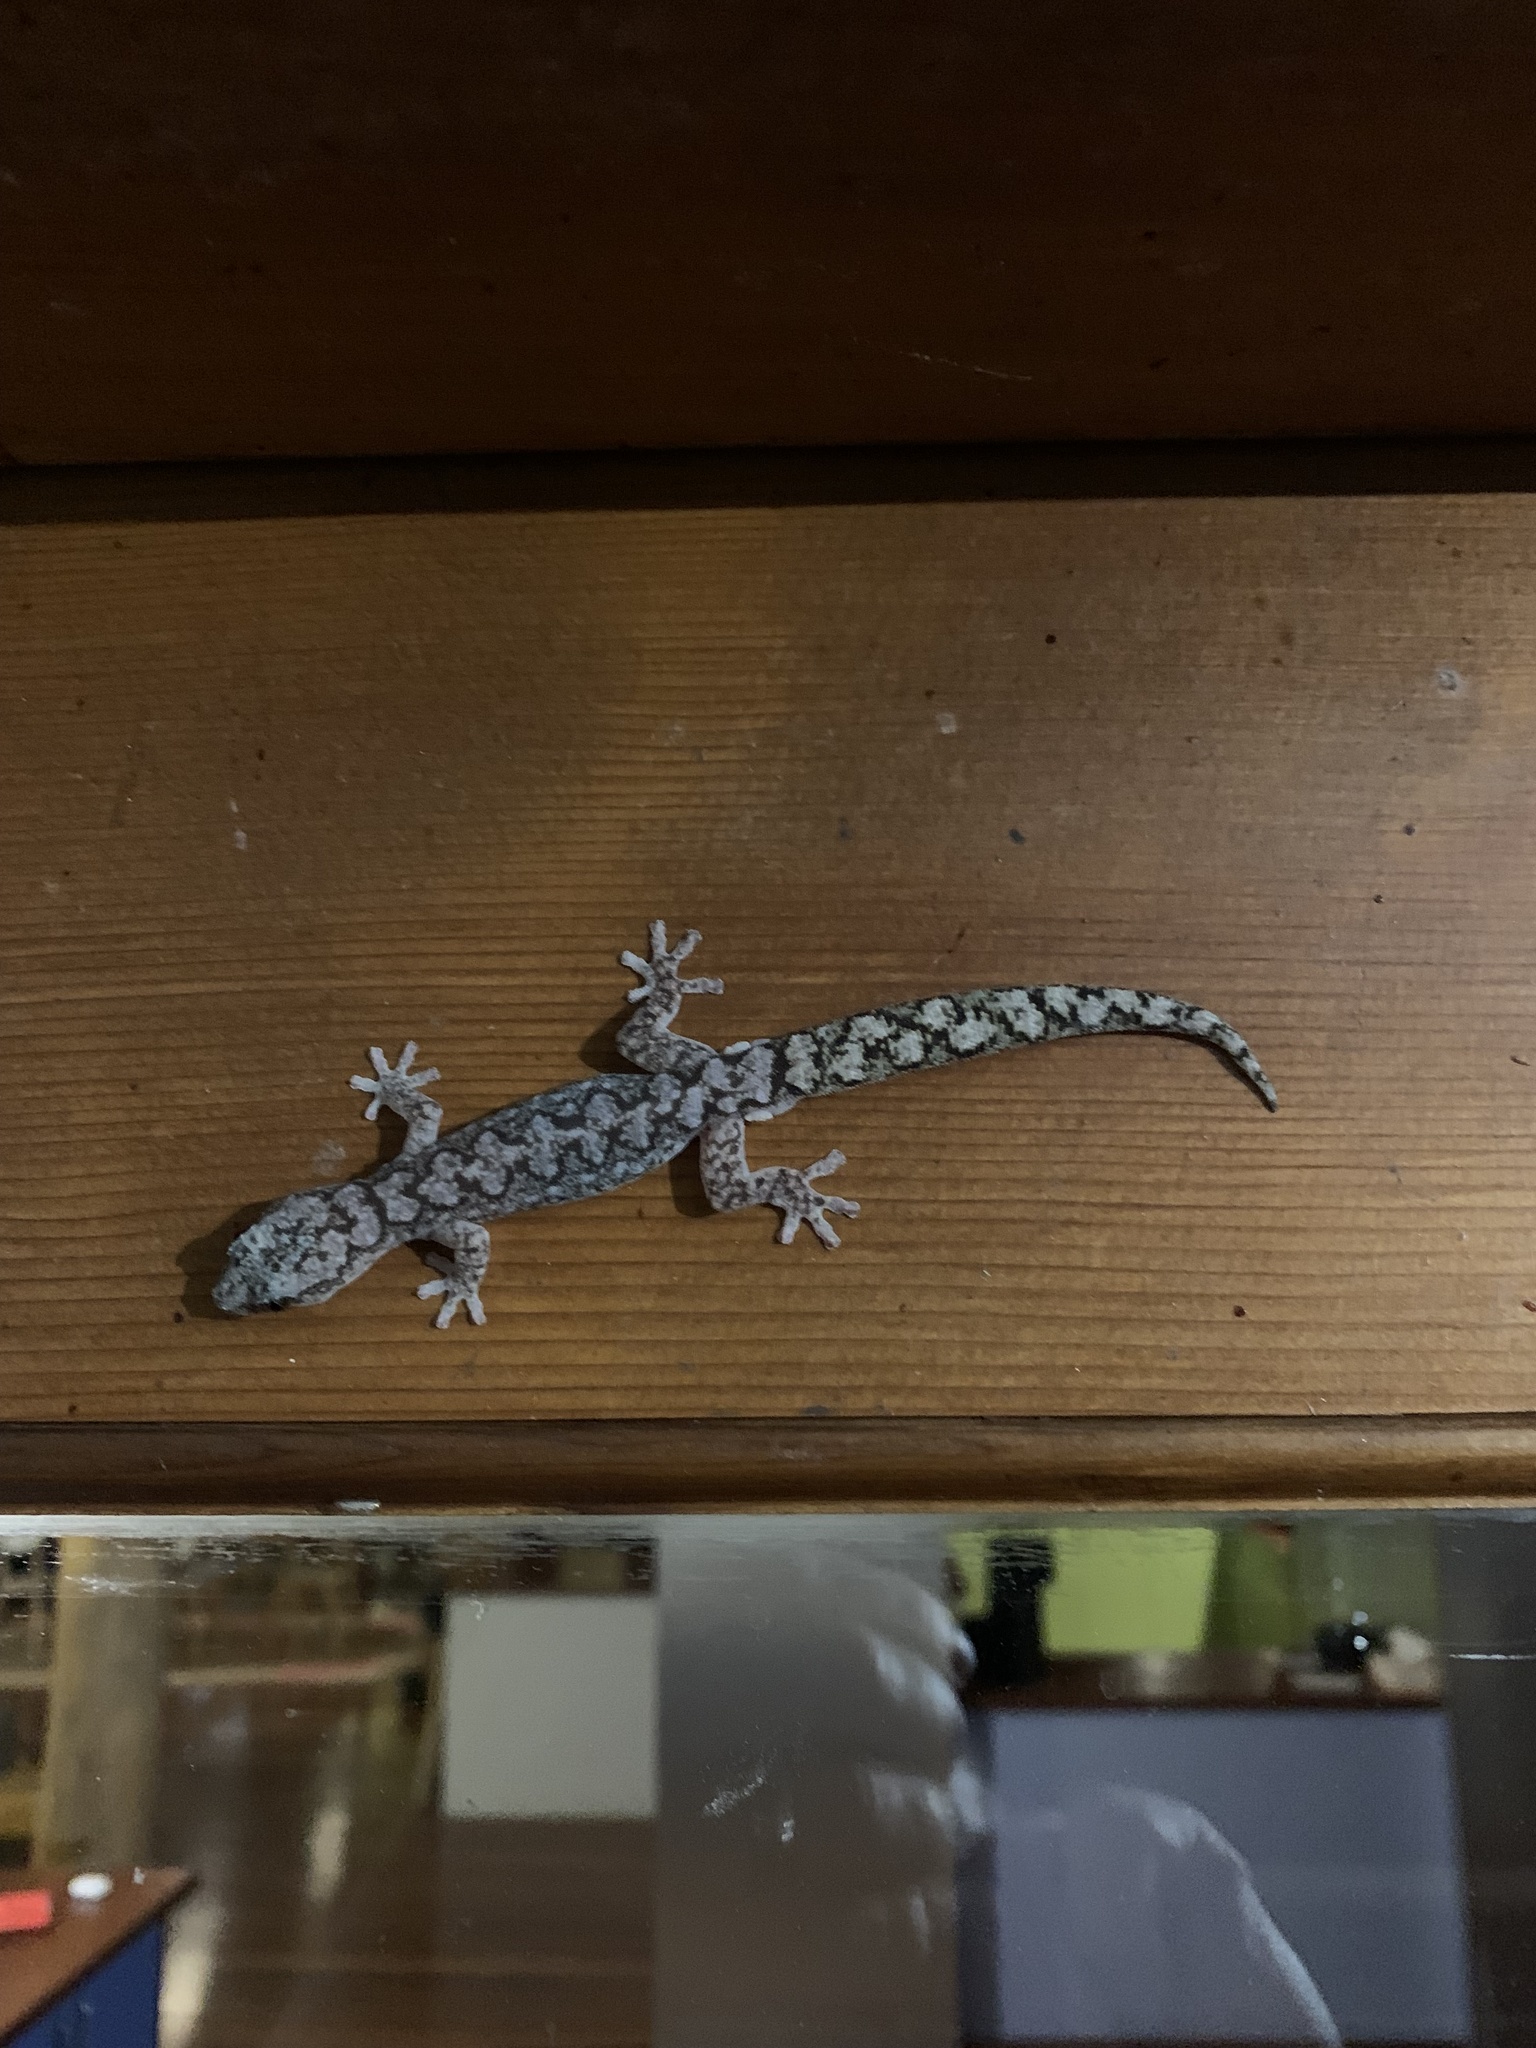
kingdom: Animalia
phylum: Chordata
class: Squamata
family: Diplodactylidae
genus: Amalosia
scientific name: Amalosia lesueurii
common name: Lesueur's gecko
